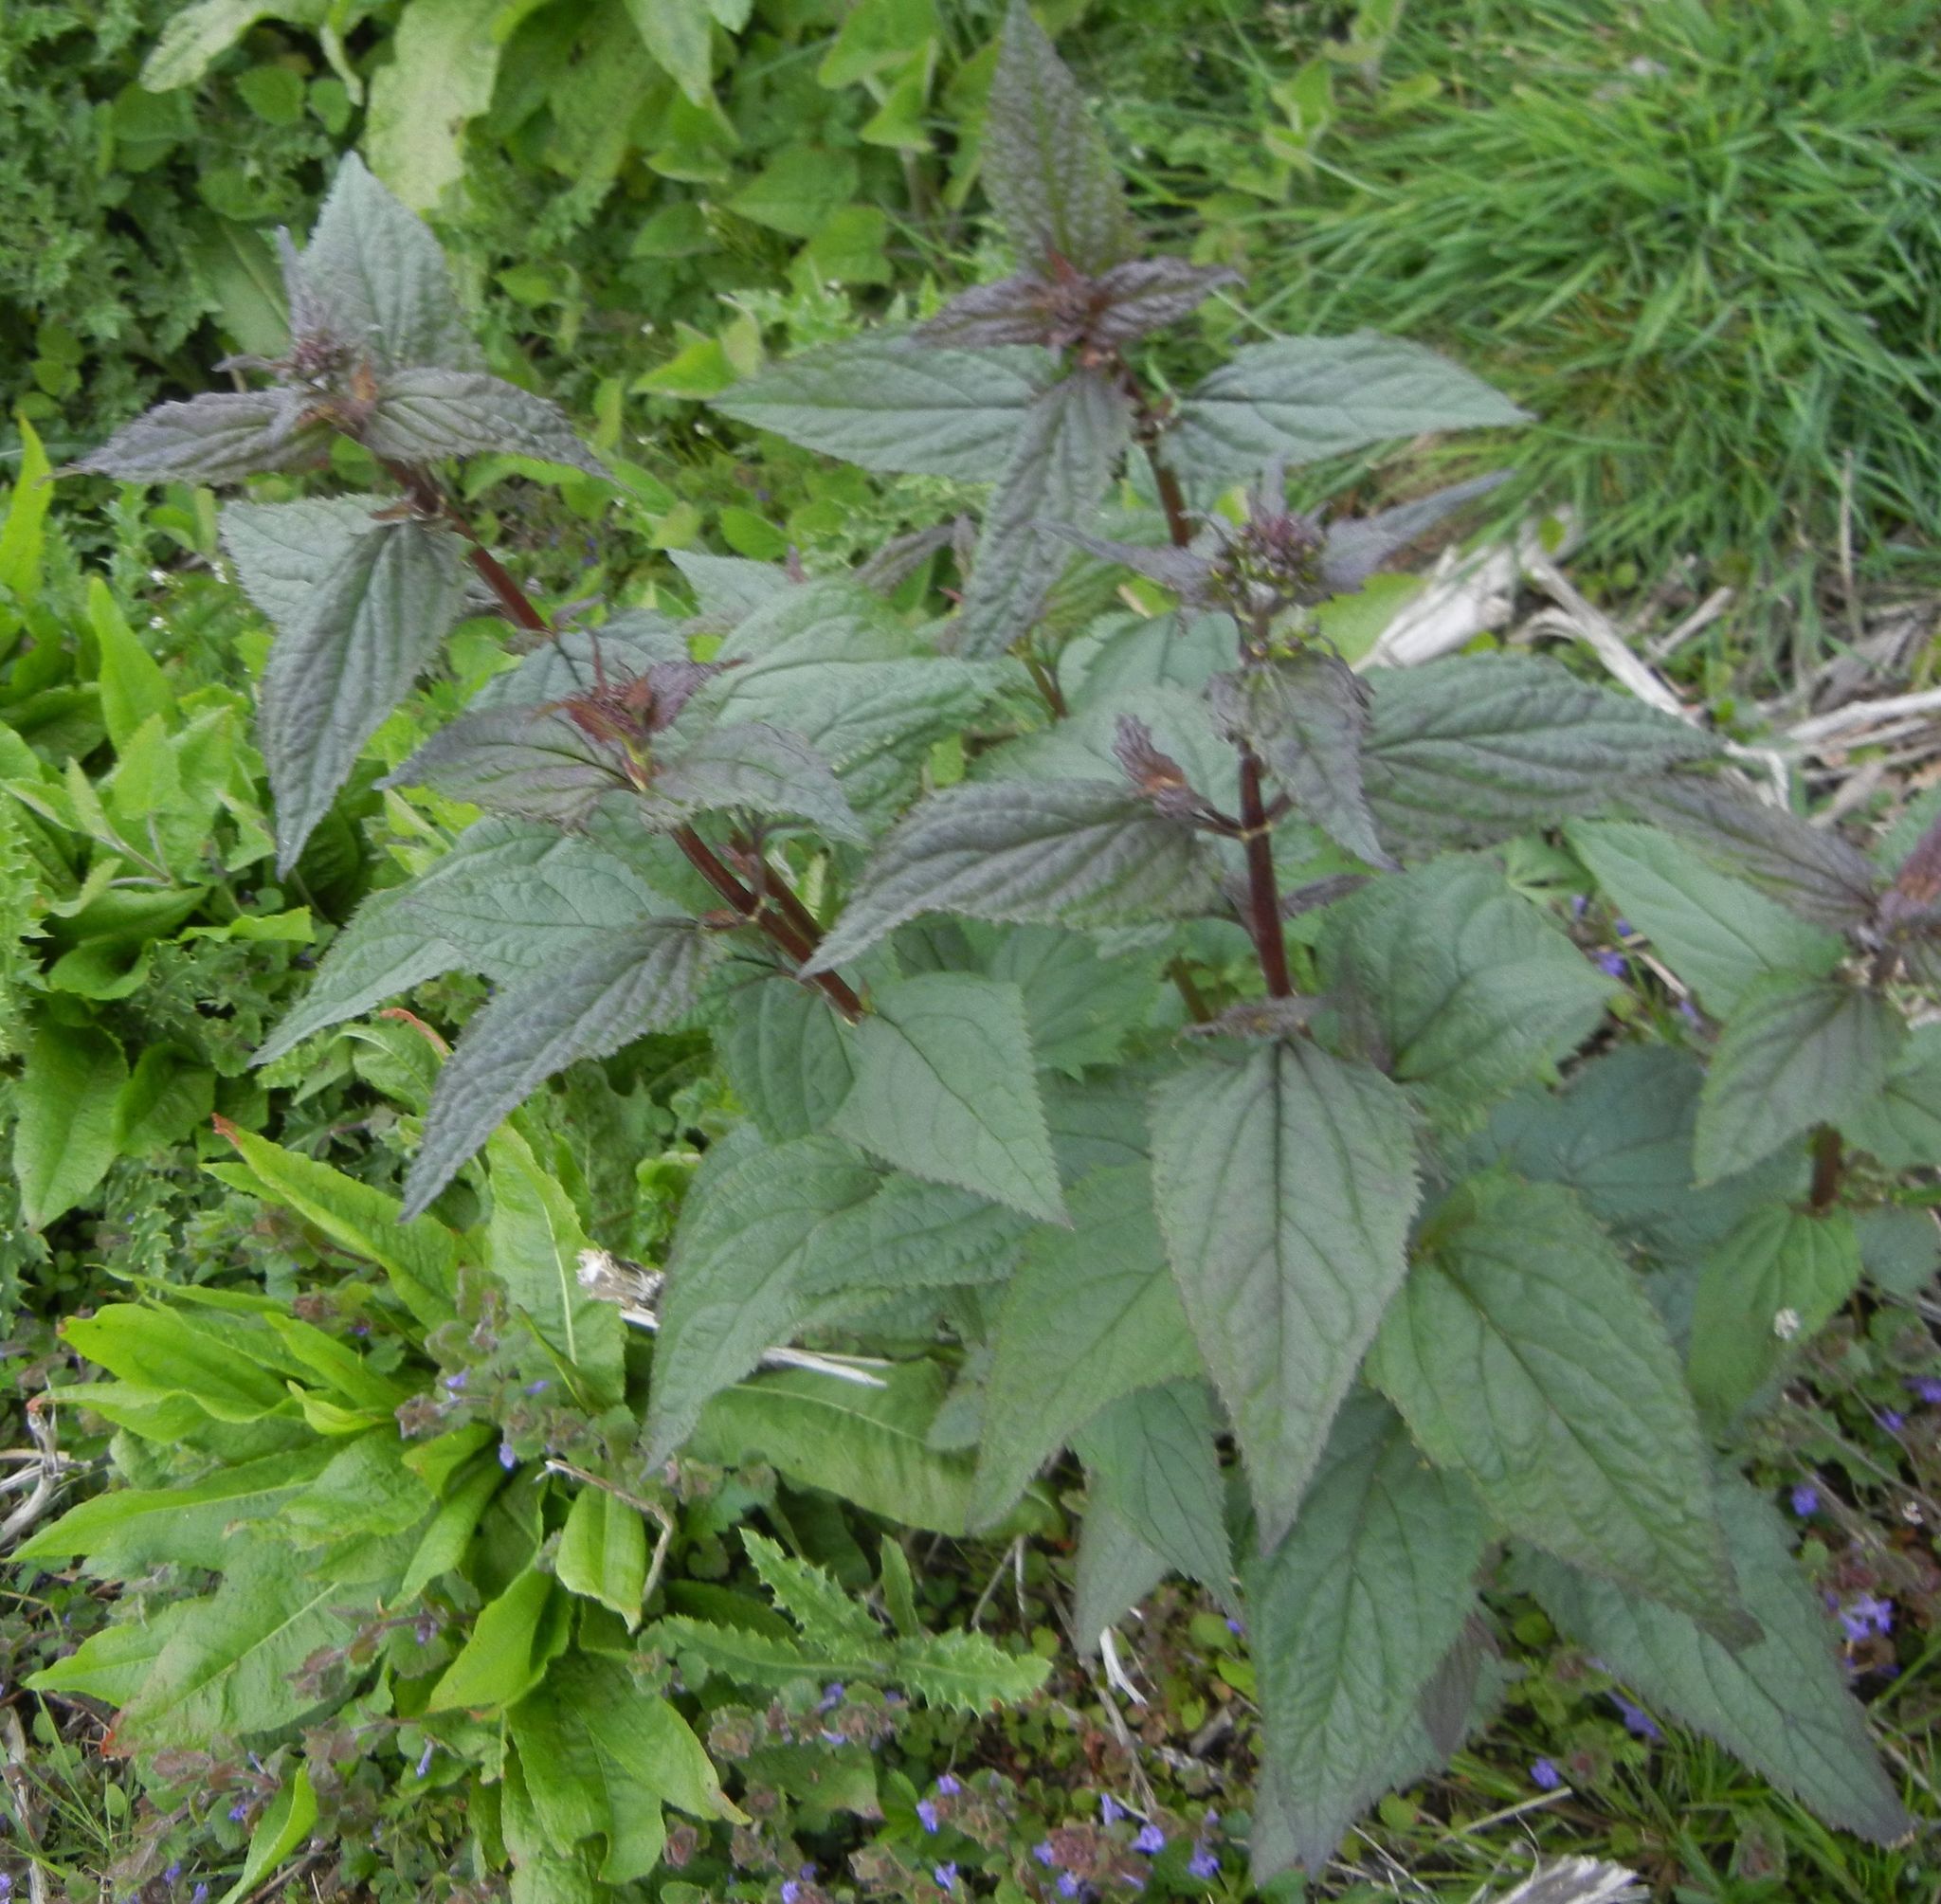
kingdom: Plantae
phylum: Tracheophyta
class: Magnoliopsida
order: Lamiales
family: Scrophulariaceae
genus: Scrophularia
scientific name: Scrophularia nodosa
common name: Common figwort
